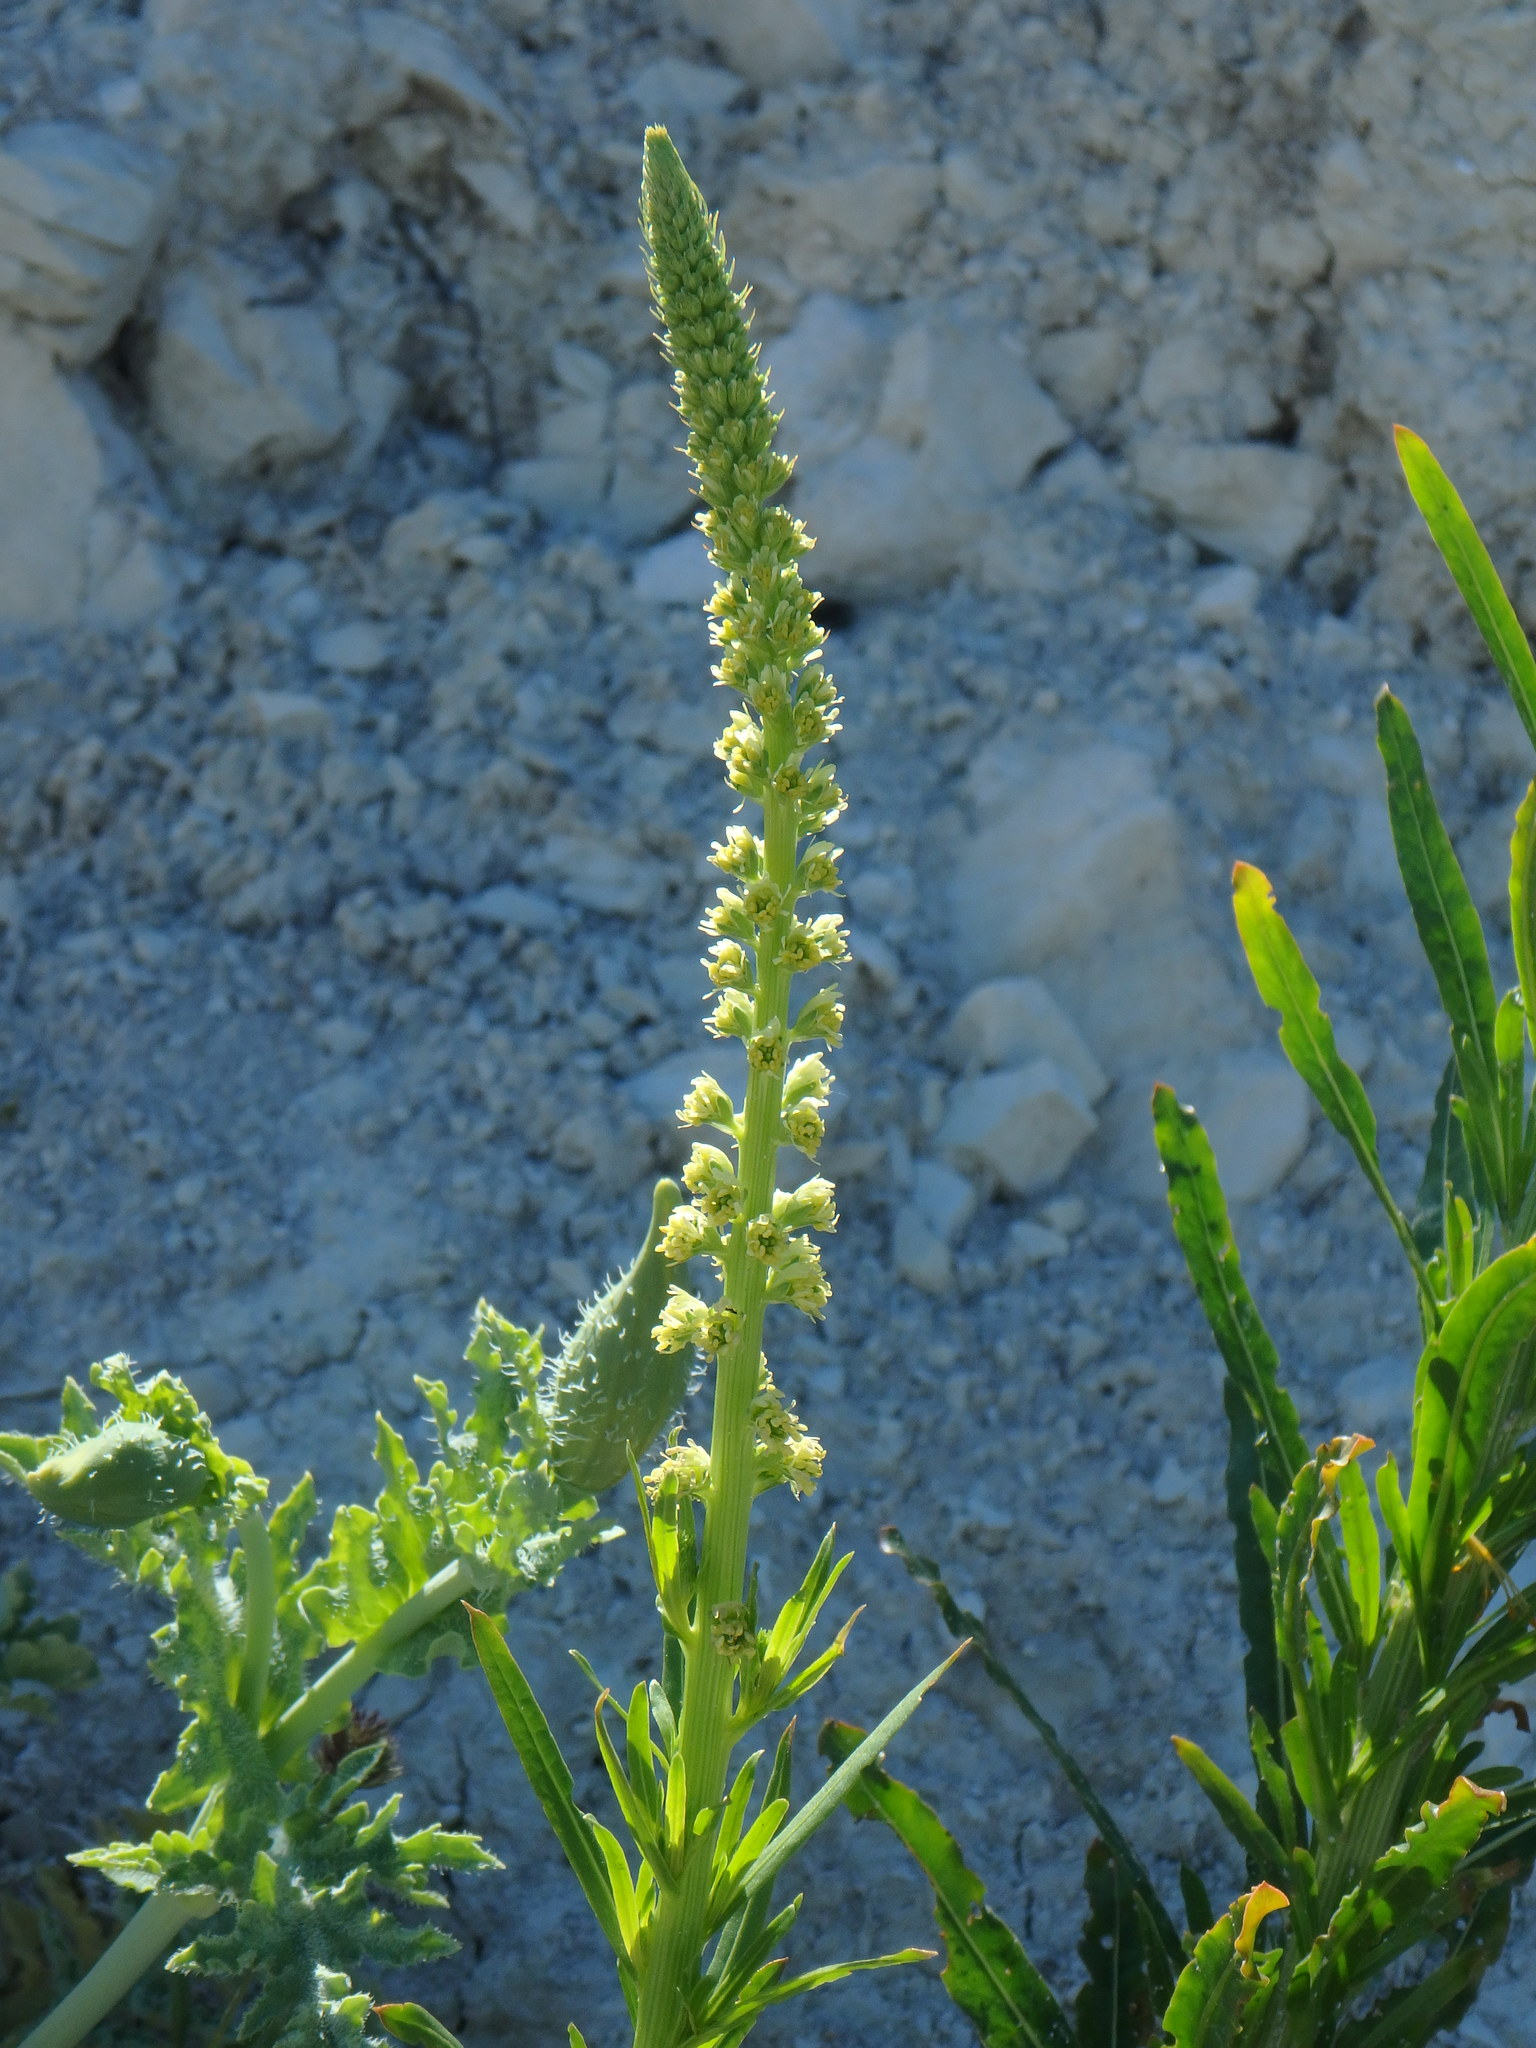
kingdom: Plantae
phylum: Tracheophyta
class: Magnoliopsida
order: Brassicales
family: Resedaceae
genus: Reseda
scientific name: Reseda luteola
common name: Weld
